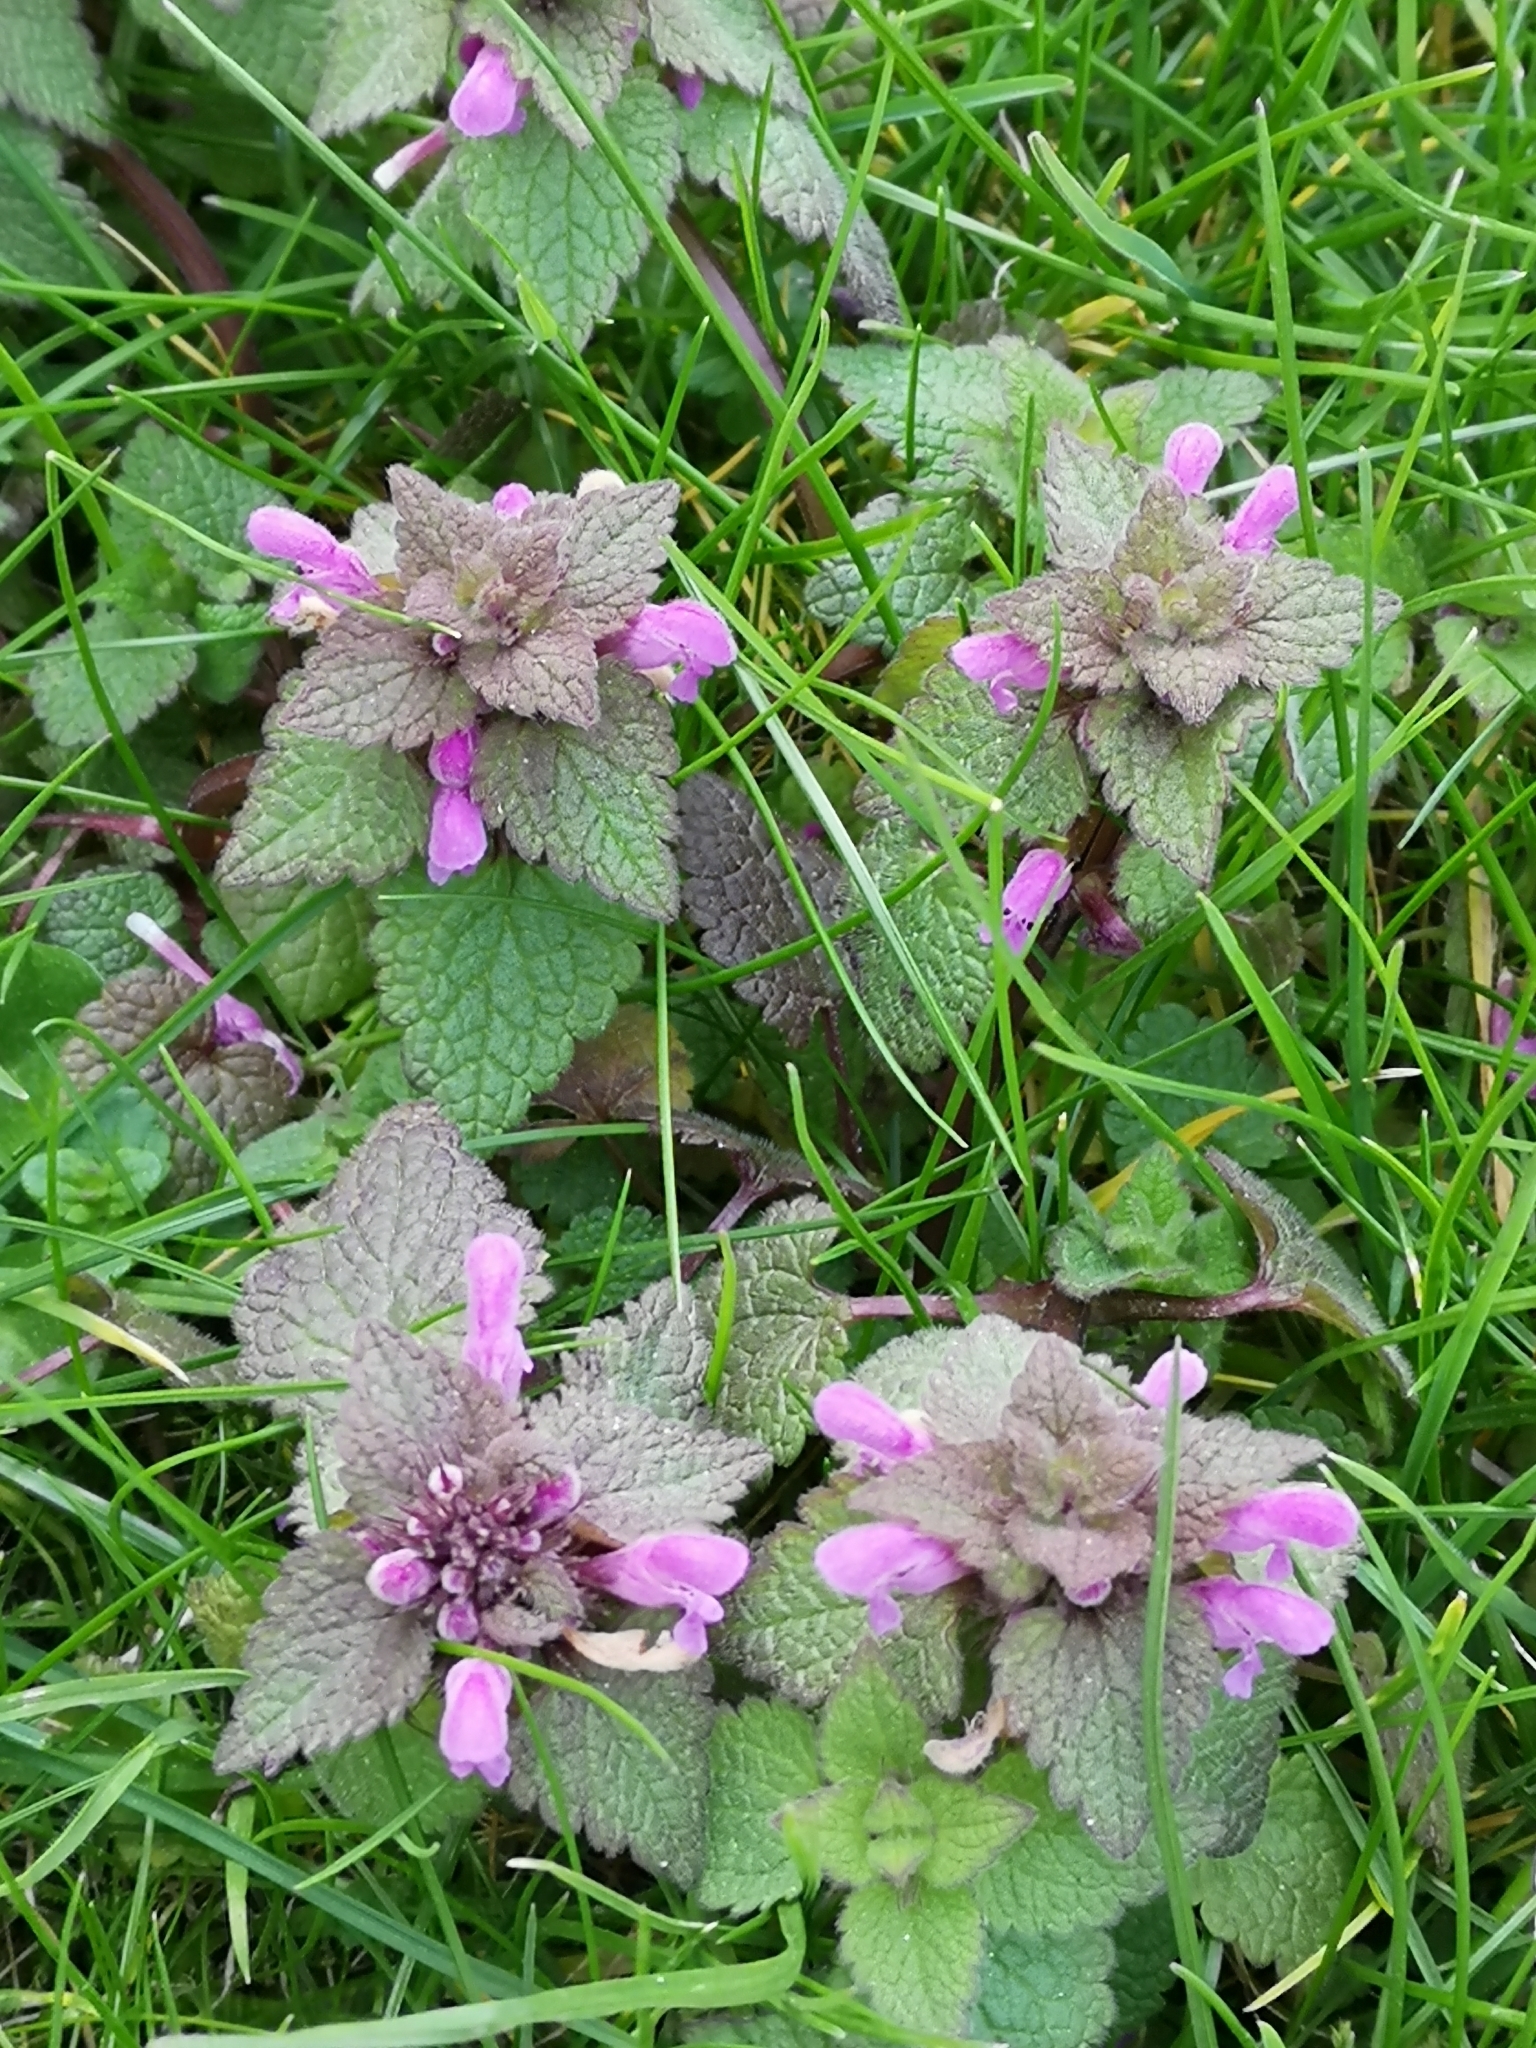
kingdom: Plantae
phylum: Tracheophyta
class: Magnoliopsida
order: Lamiales
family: Lamiaceae
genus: Lamium
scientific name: Lamium purpureum
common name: Red dead-nettle
